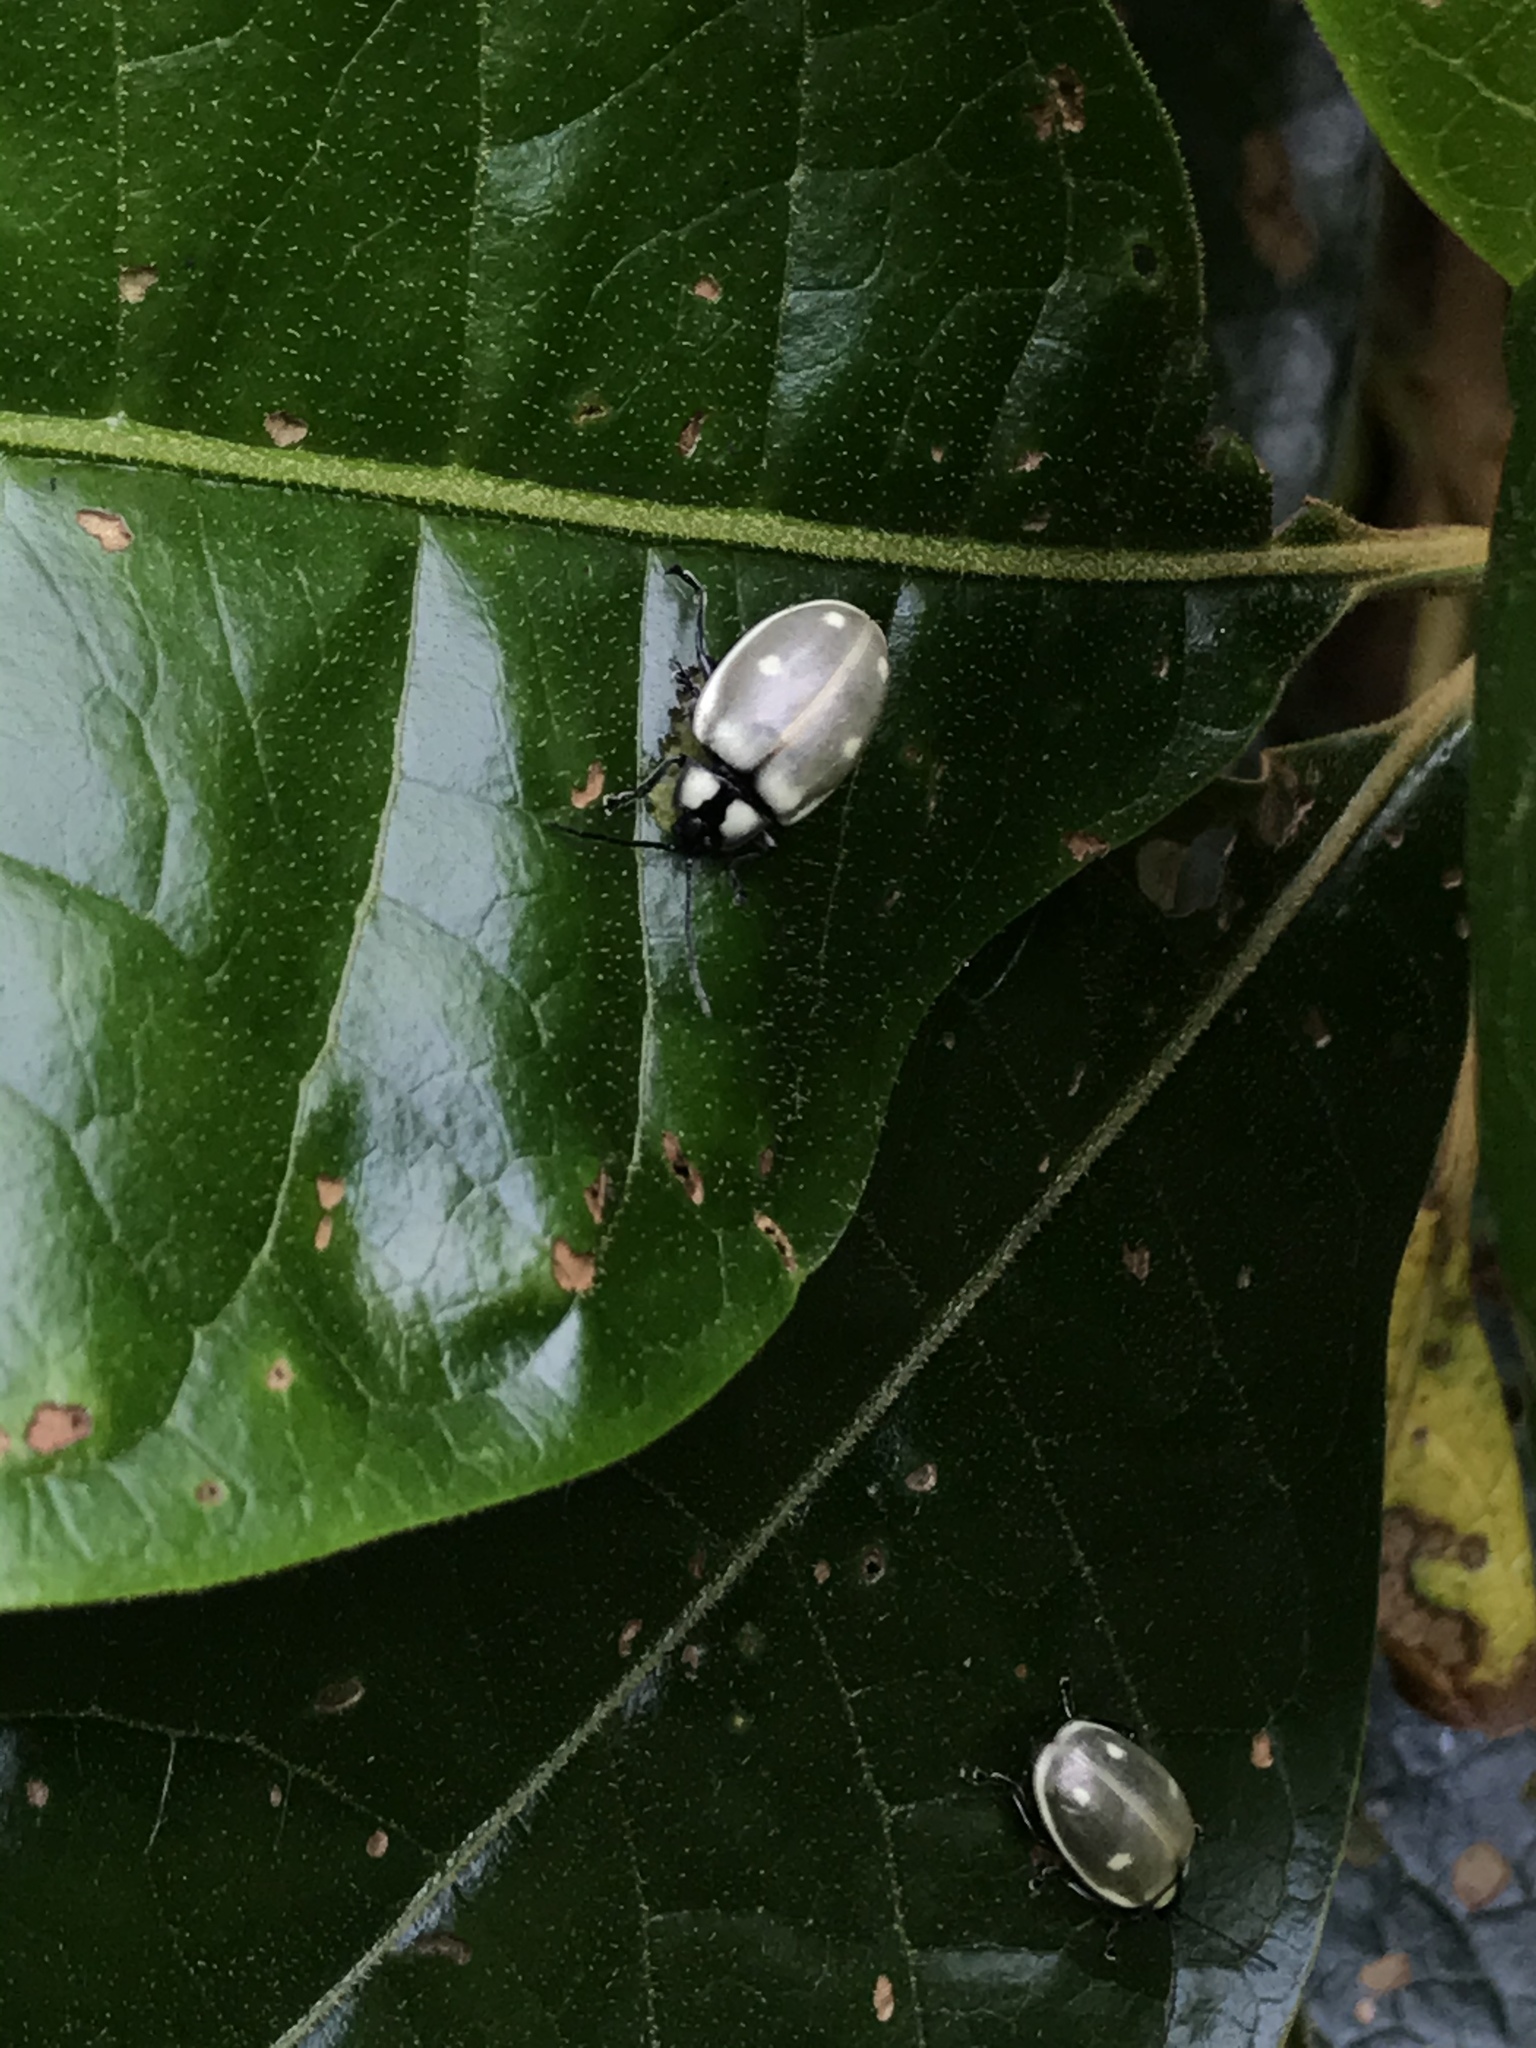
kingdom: Animalia
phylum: Arthropoda
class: Insecta
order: Coleoptera
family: Chrysomelidae
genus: Aspicela
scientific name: Aspicela
